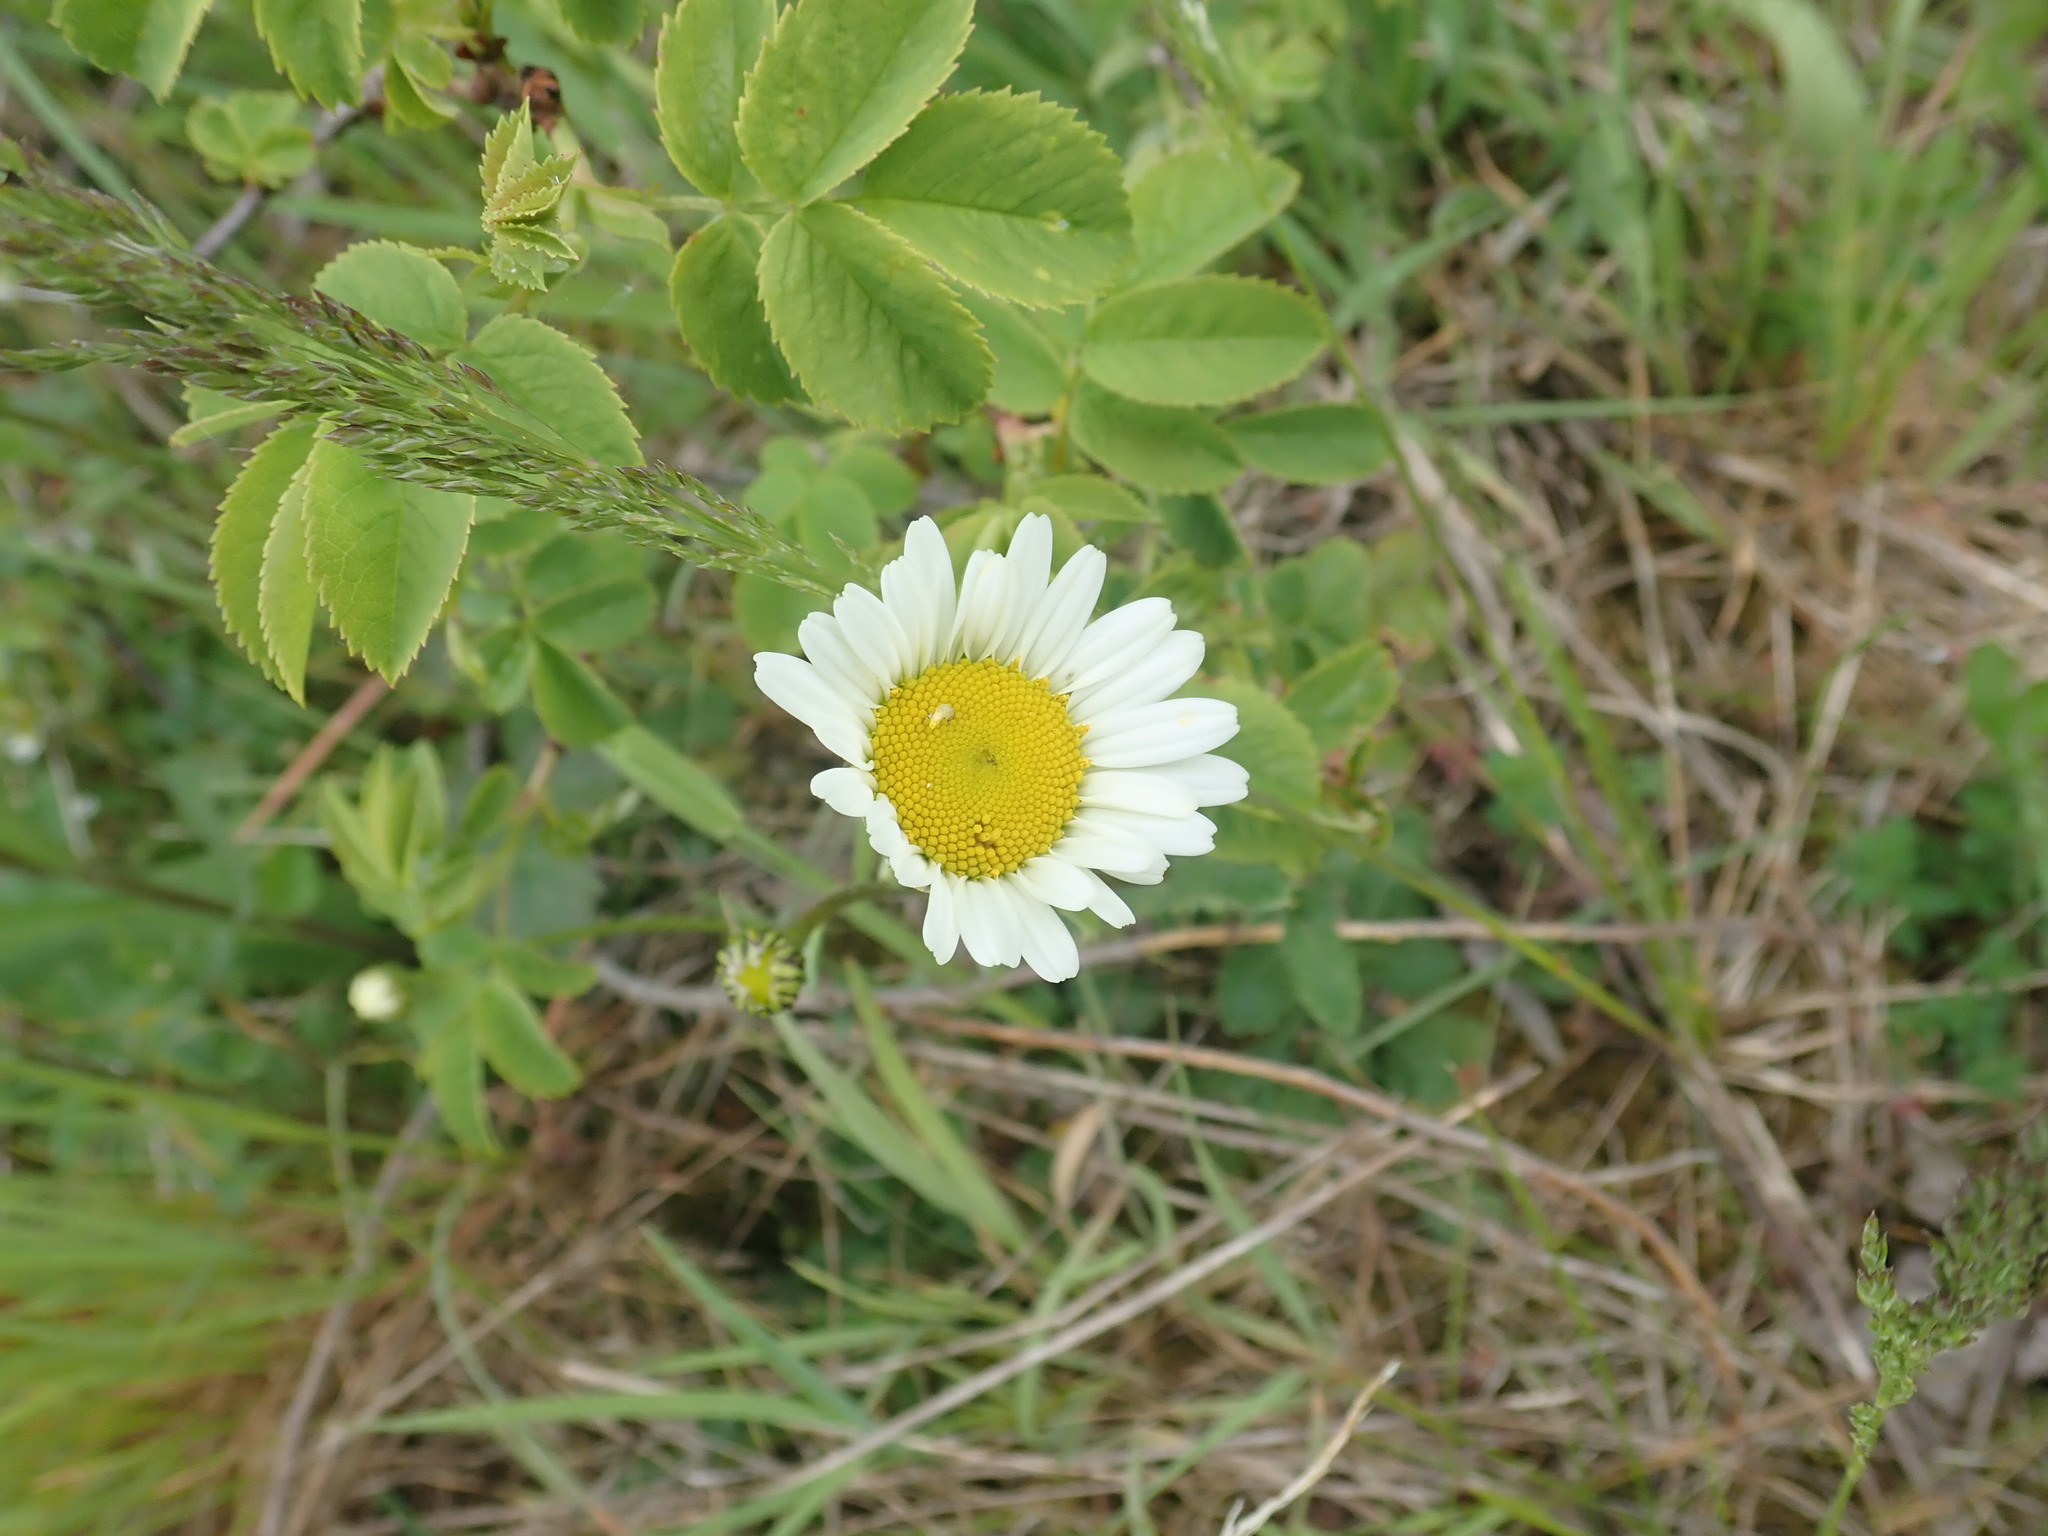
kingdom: Plantae
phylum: Tracheophyta
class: Magnoliopsida
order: Asterales
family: Asteraceae
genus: Leucanthemum
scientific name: Leucanthemum vulgare
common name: Oxeye daisy
